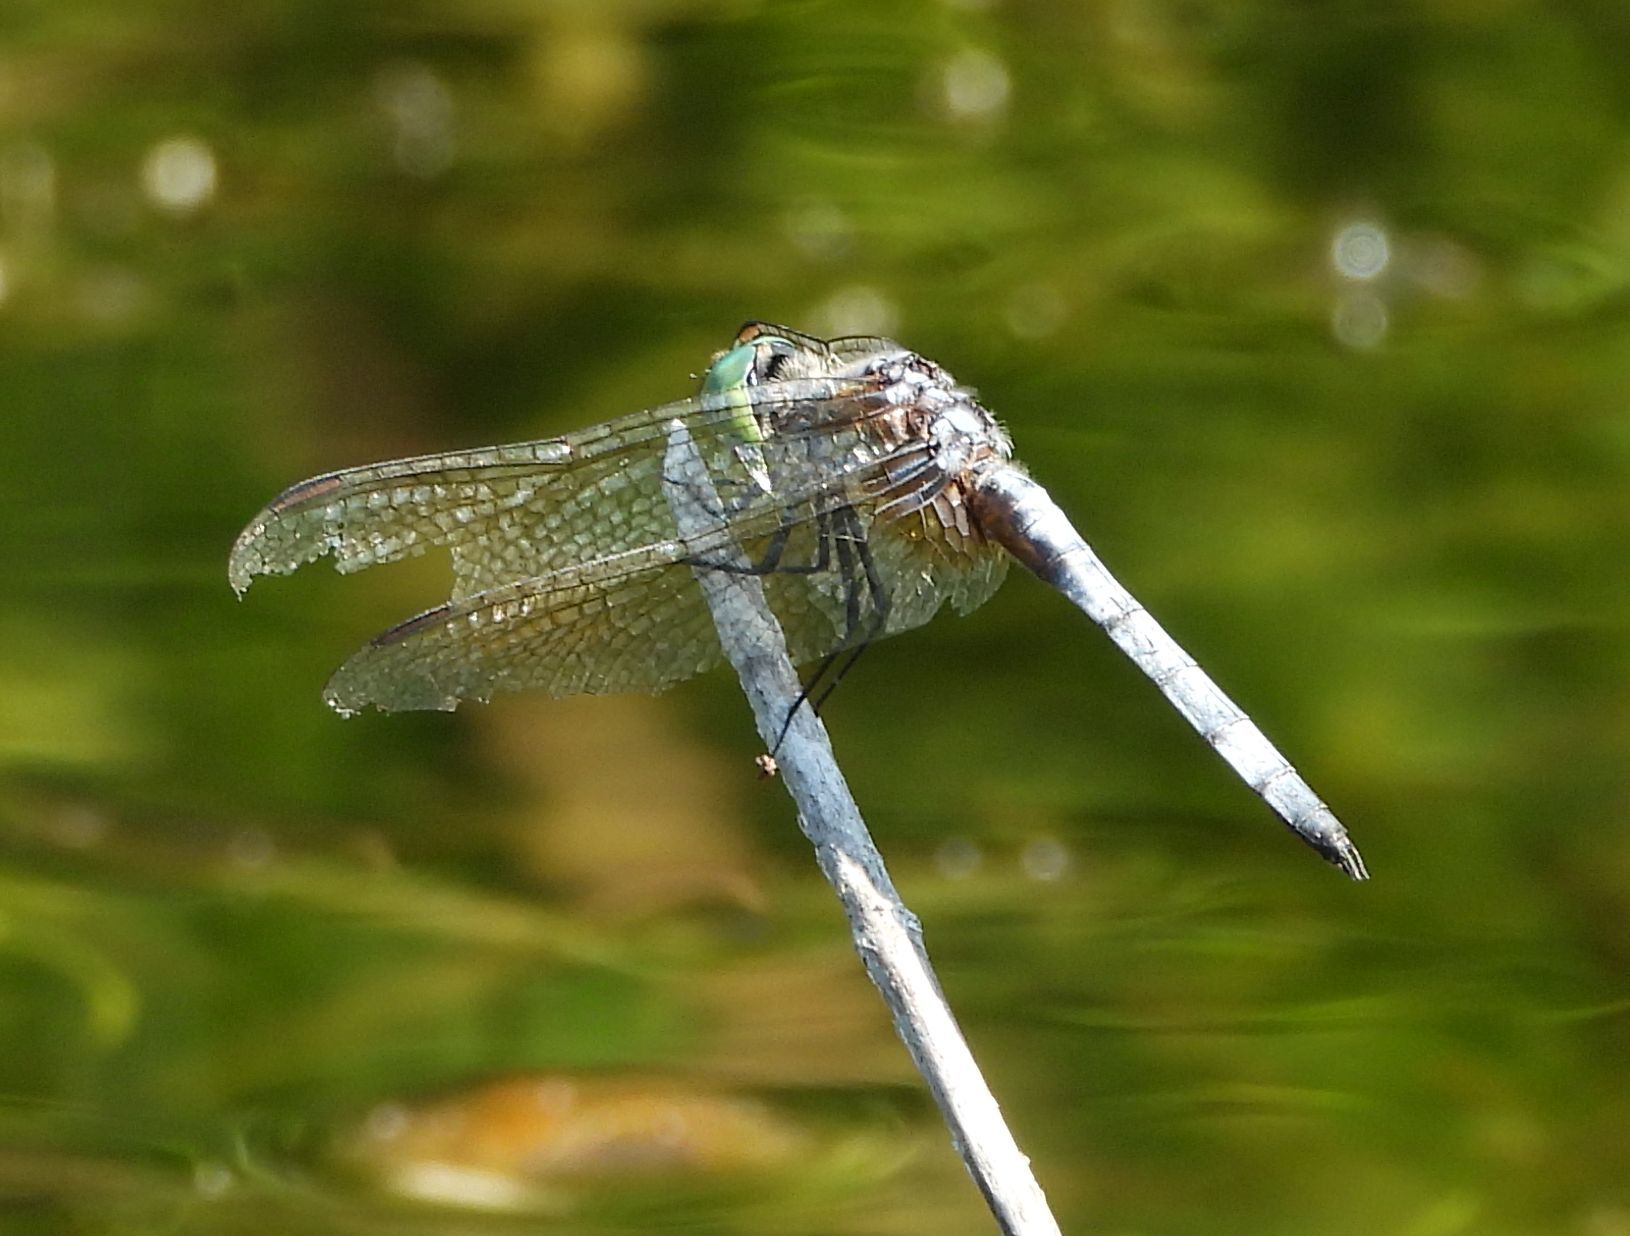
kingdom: Animalia
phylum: Arthropoda
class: Insecta
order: Odonata
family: Libellulidae
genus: Pachydiplax
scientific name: Pachydiplax longipennis
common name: Blue dasher
